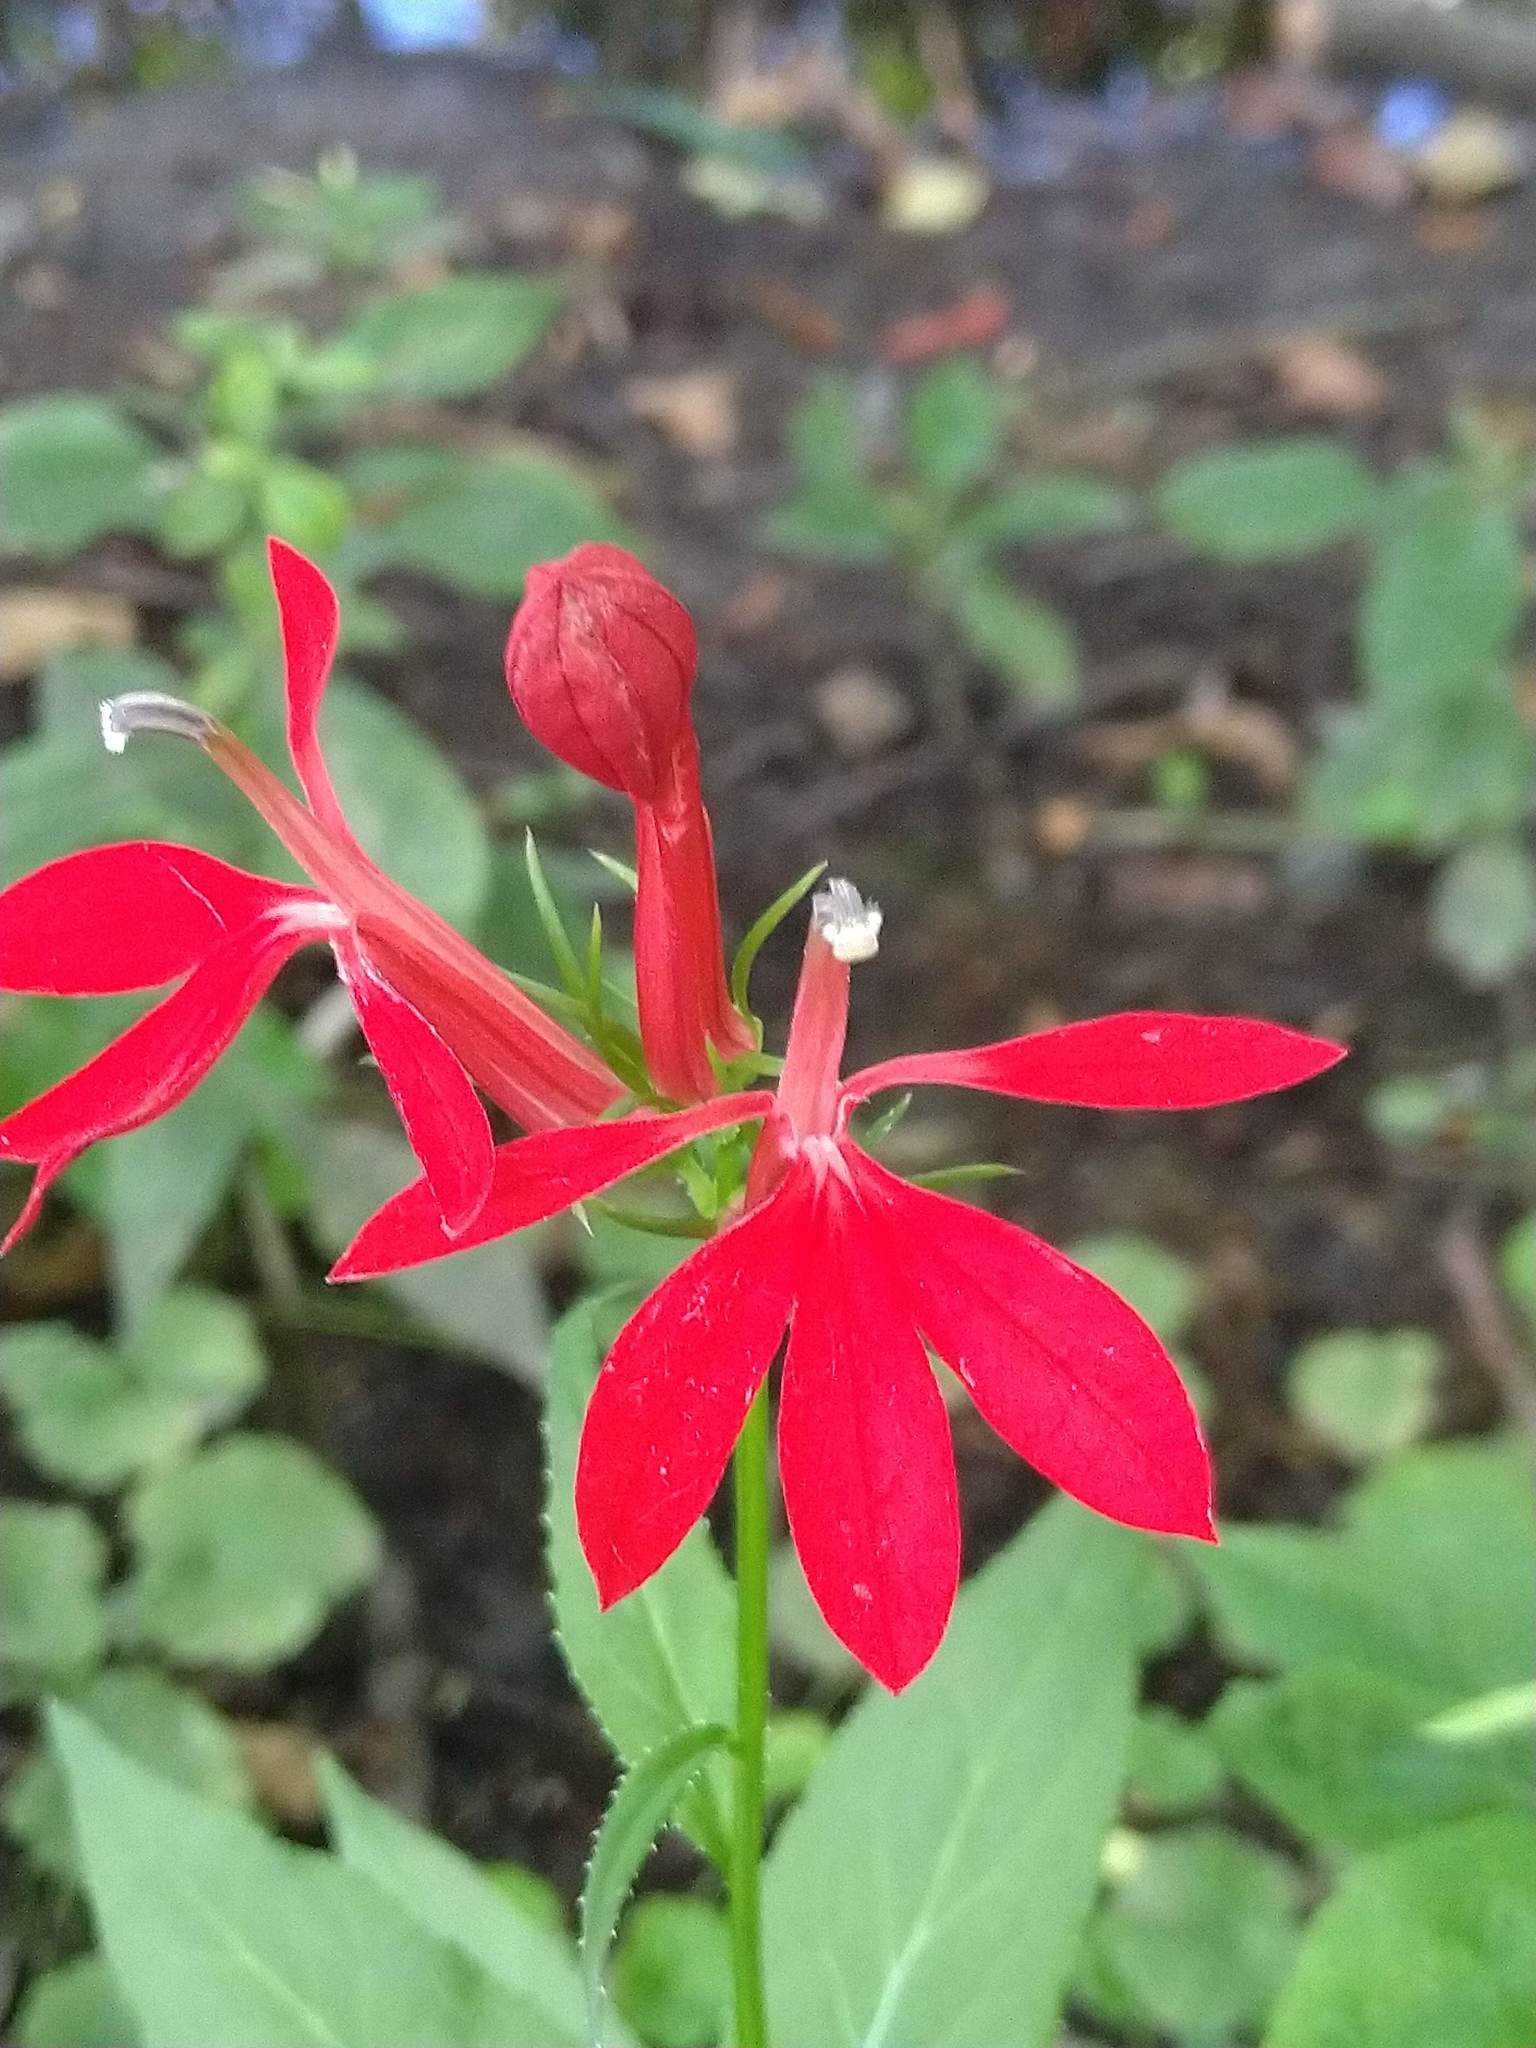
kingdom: Plantae
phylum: Tracheophyta
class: Magnoliopsida
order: Asterales
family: Campanulaceae
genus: Lobelia
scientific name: Lobelia cardinalis
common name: Cardinal flower
